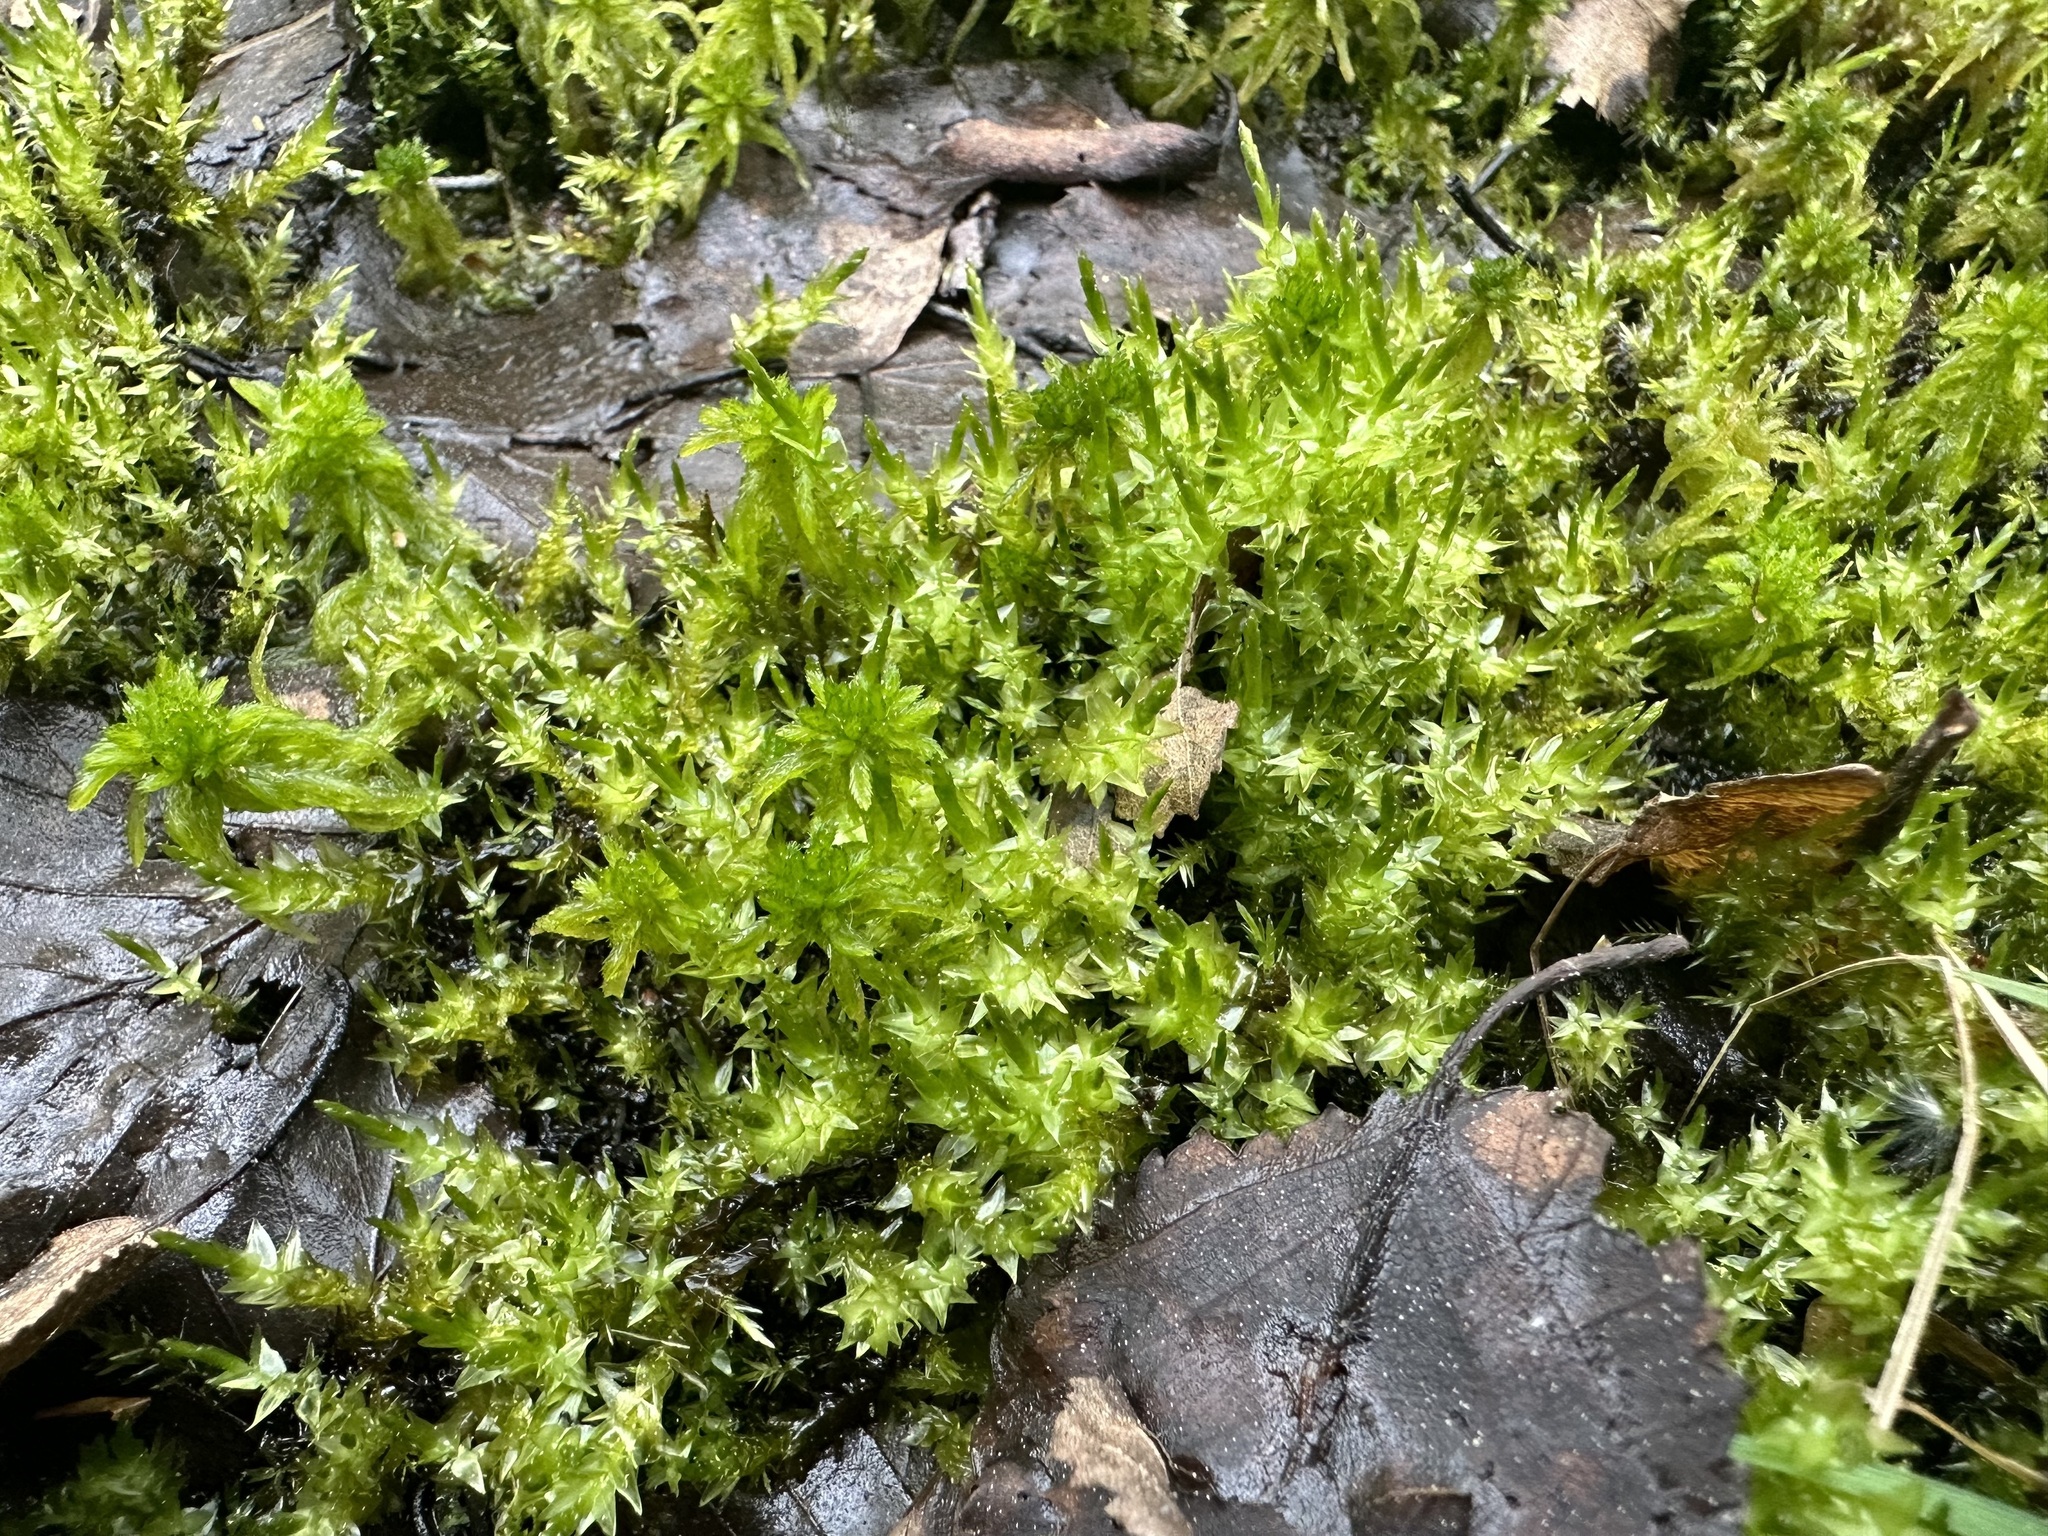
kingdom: Plantae
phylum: Bryophyta
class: Bryopsida
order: Hypnales
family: Pylaisiaceae
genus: Calliergonella
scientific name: Calliergonella cuspidata
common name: Common large wetland moss
